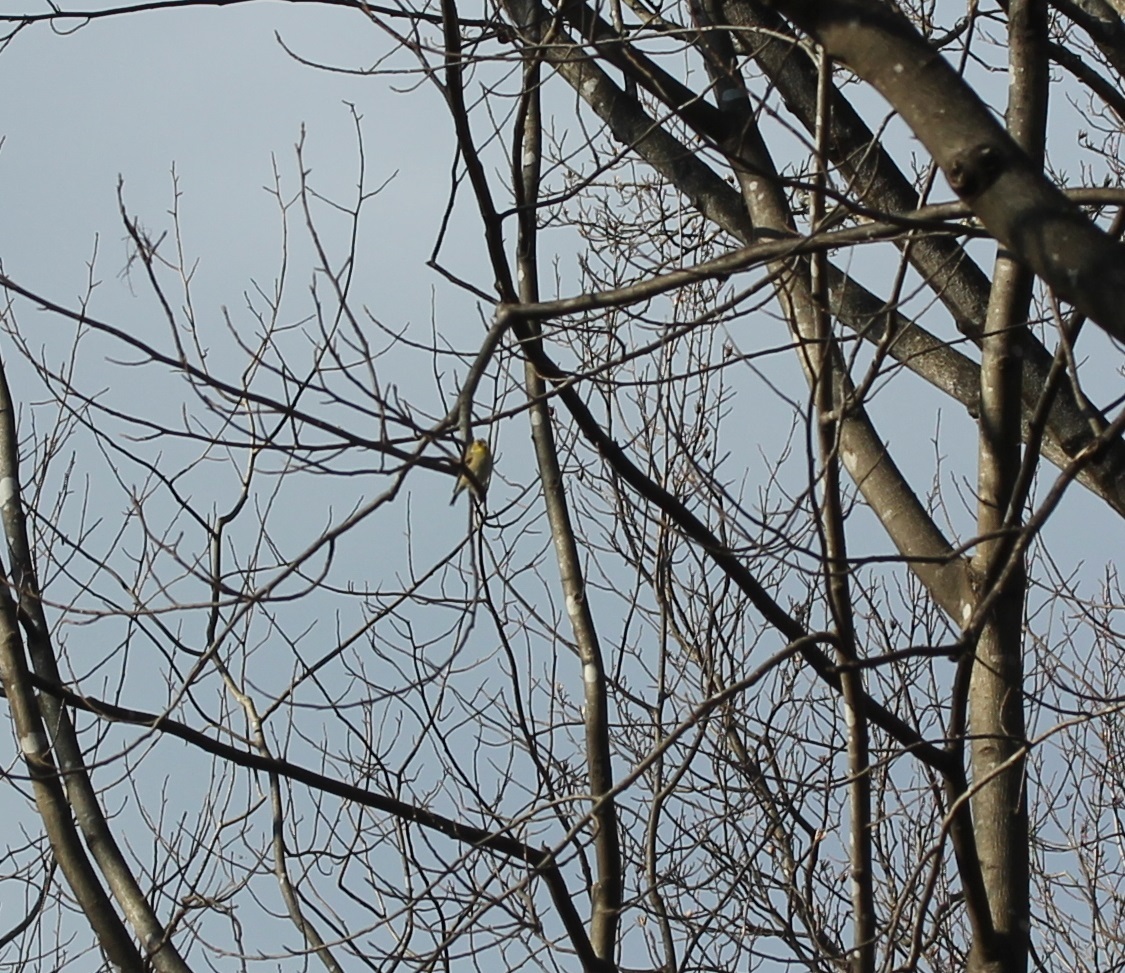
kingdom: Animalia
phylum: Chordata
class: Aves
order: Passeriformes
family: Fringillidae
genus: Spinus
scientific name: Spinus tristis
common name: American goldfinch
